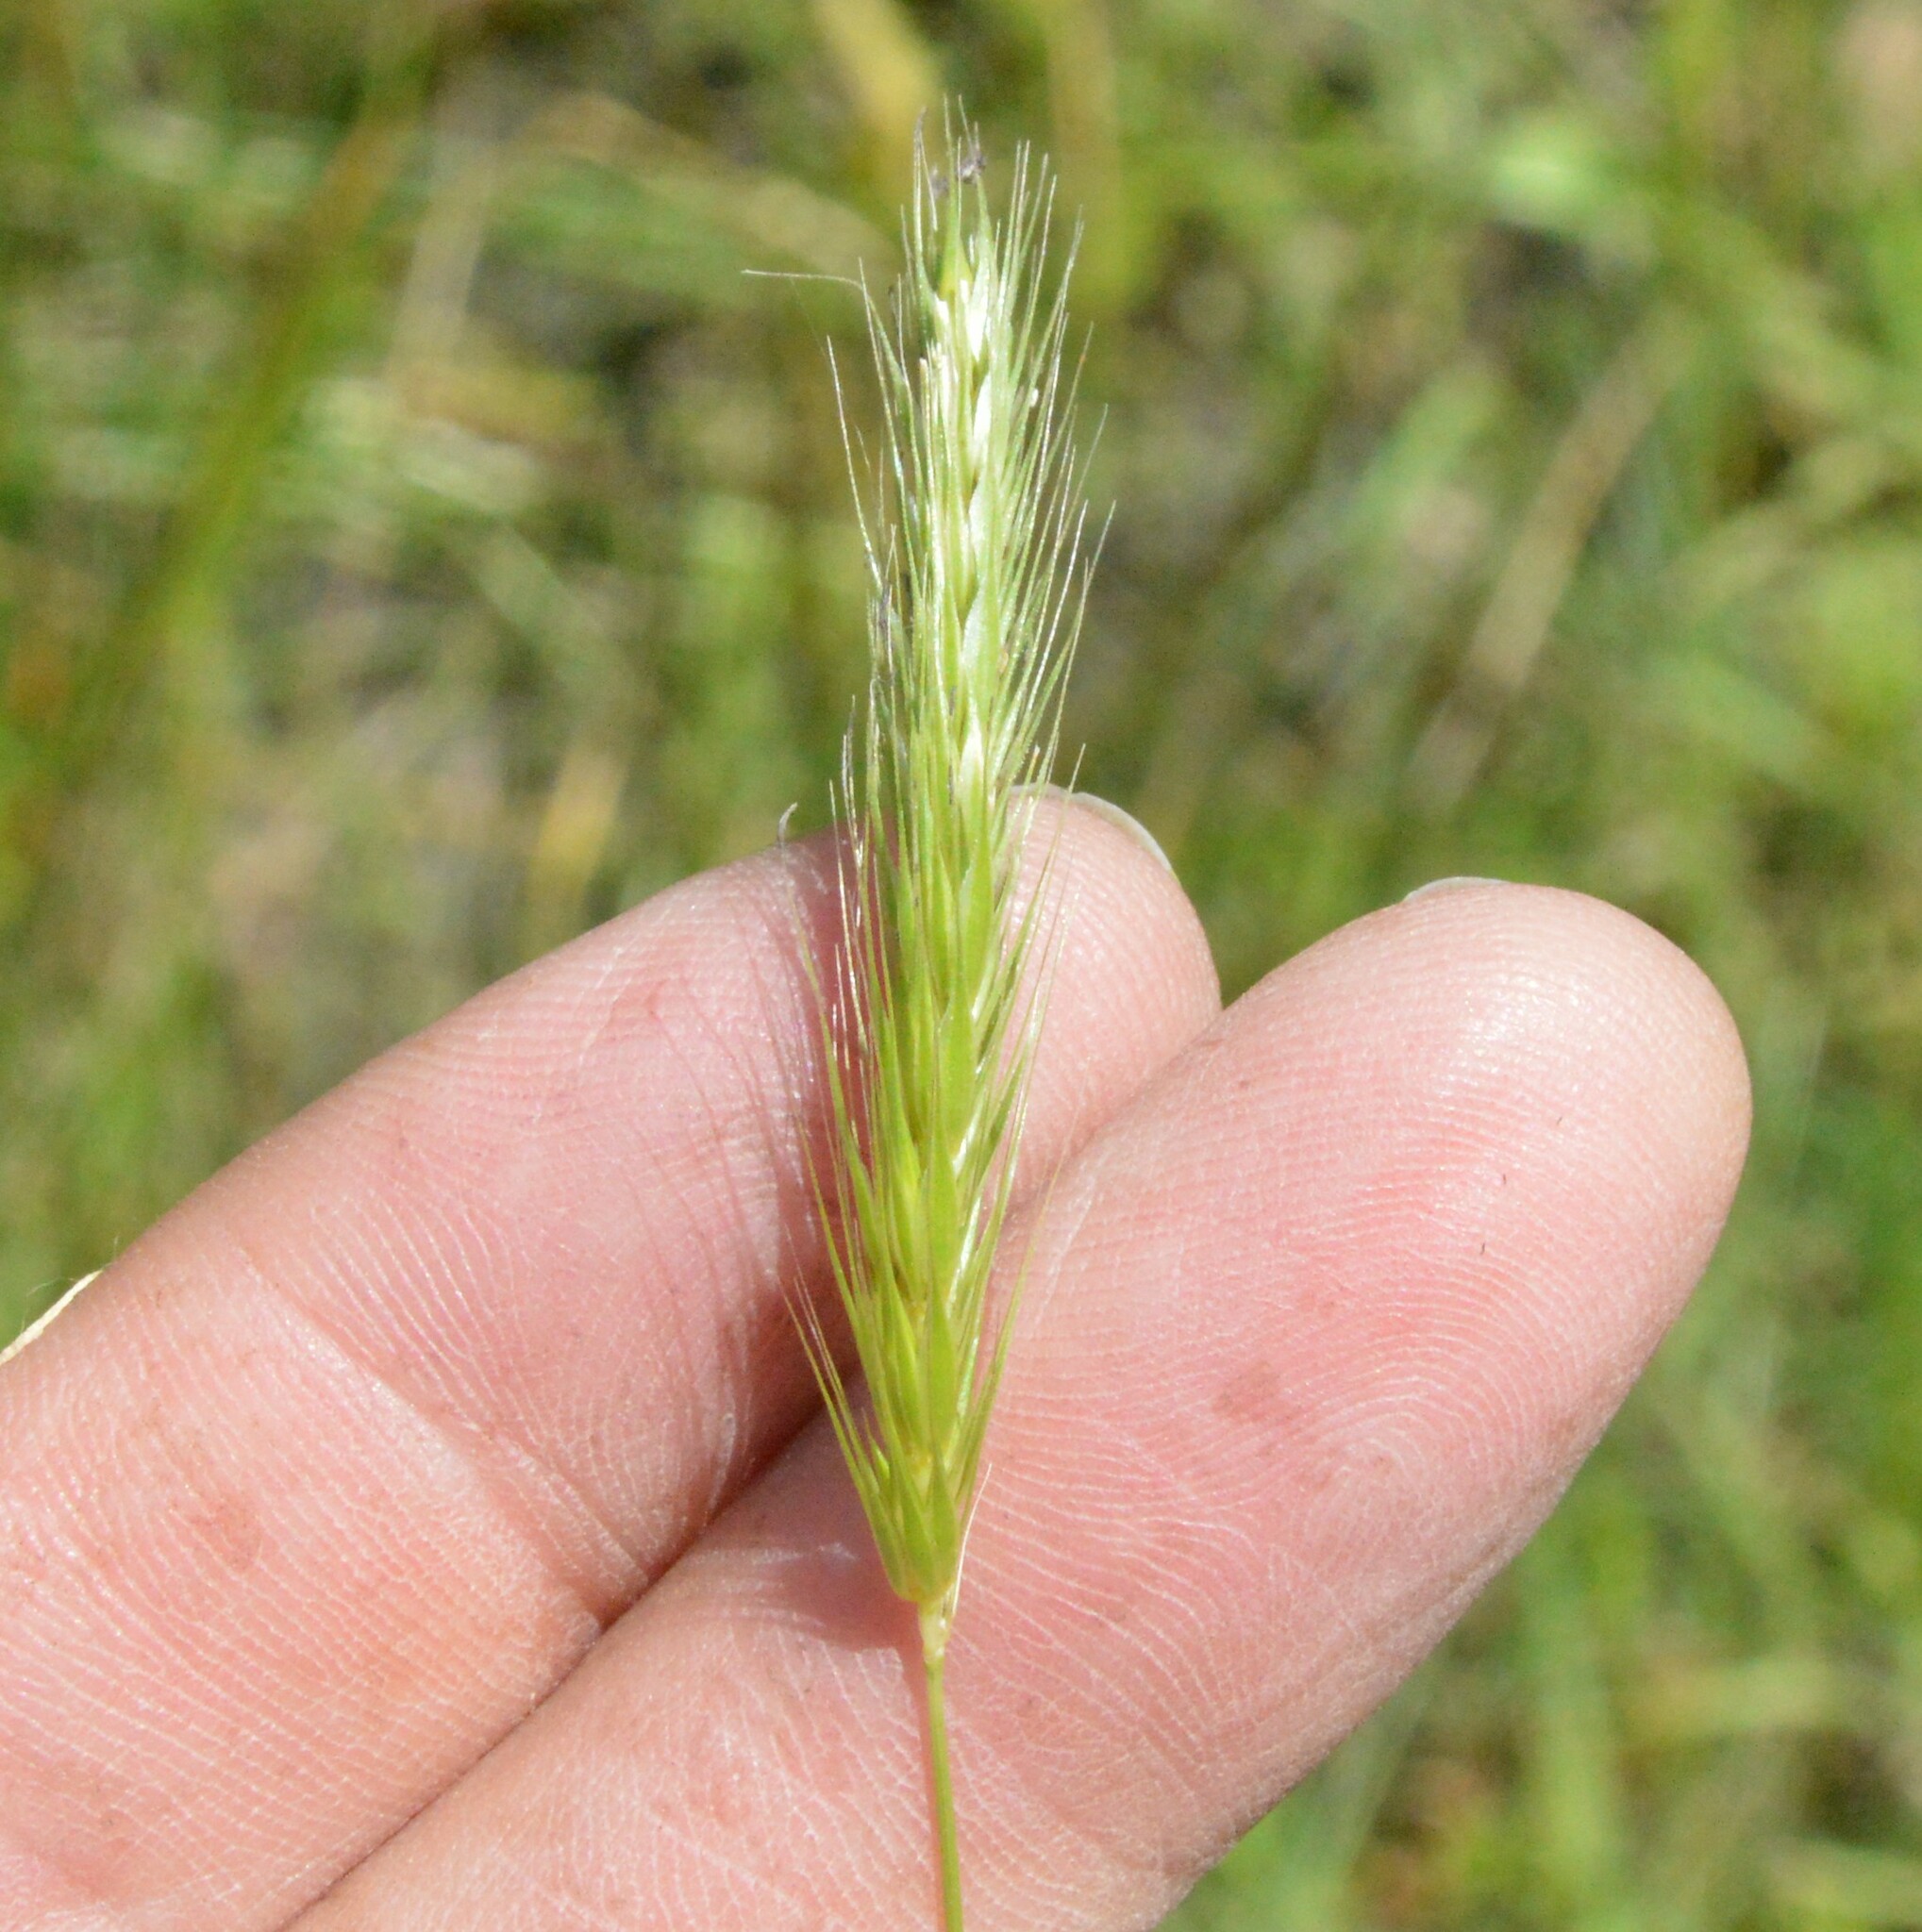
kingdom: Plantae
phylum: Tracheophyta
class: Liliopsida
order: Poales
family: Poaceae
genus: Hordeum
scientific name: Hordeum pusillum
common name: Little barley
